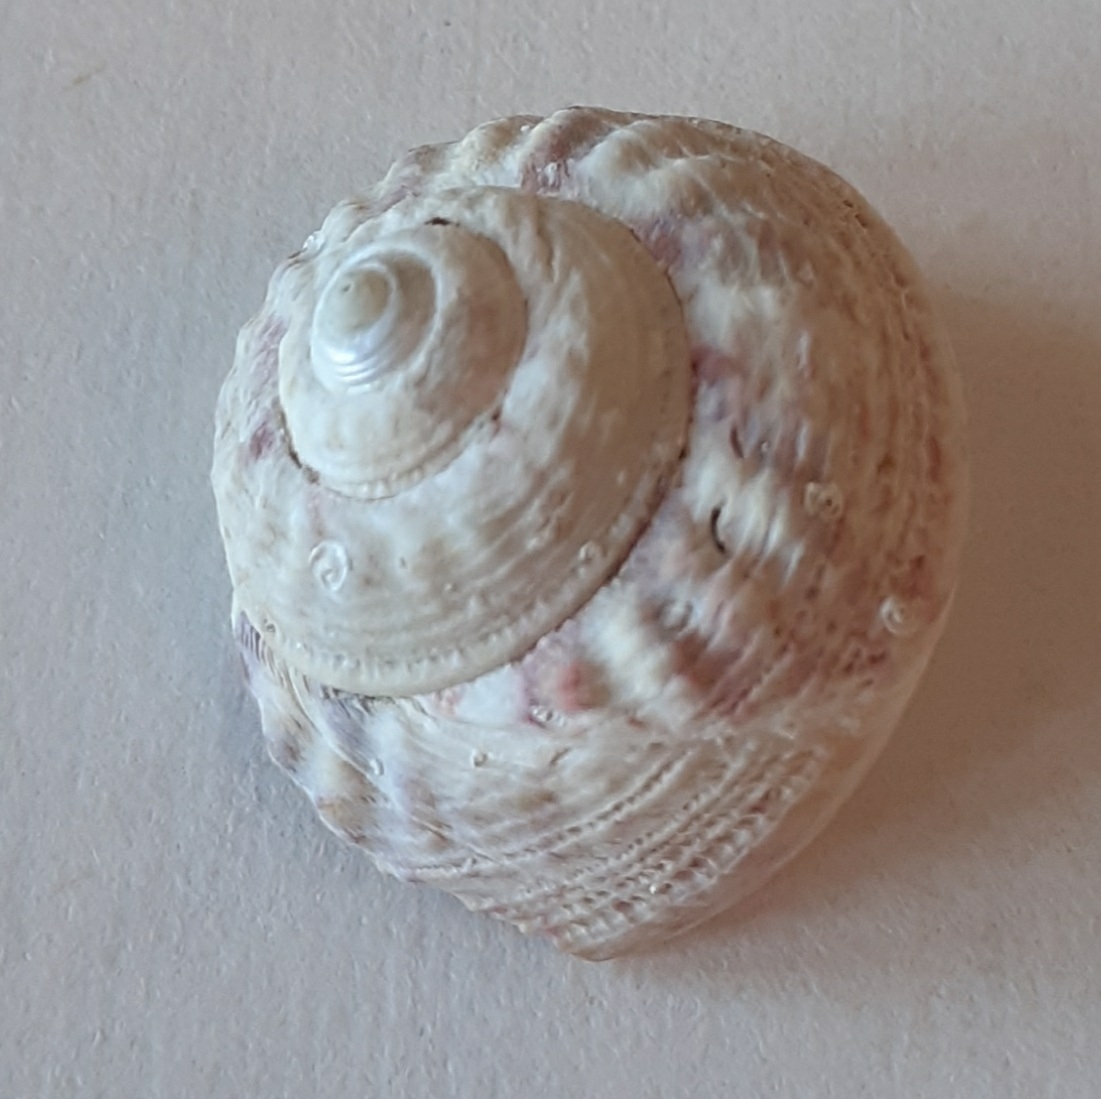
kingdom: Animalia
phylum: Mollusca
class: Gastropoda
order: Trochida
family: Trochidae
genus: Gibbula
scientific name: Gibbula magus
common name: Turban top shell
